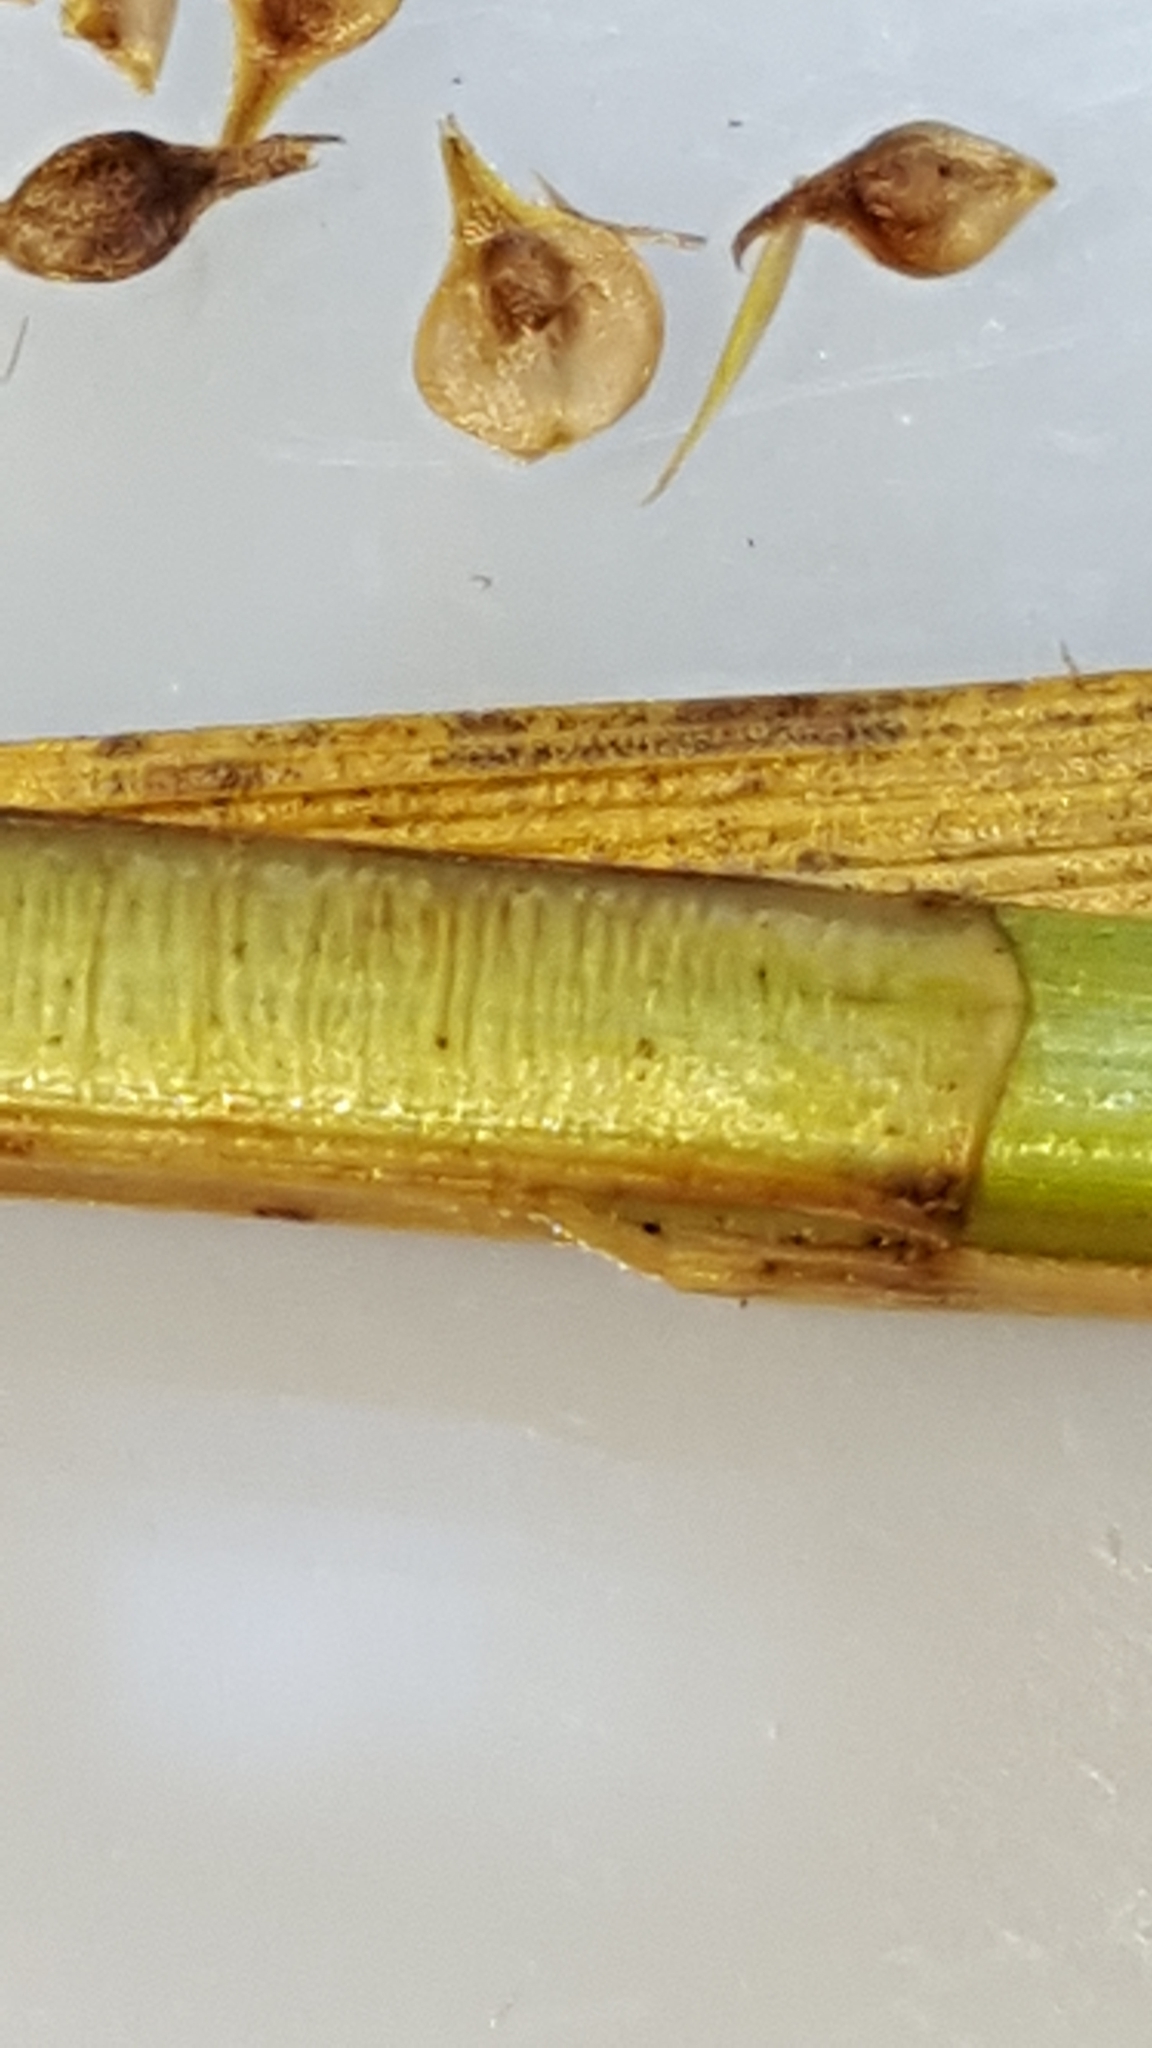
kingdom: Plantae
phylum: Tracheophyta
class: Liliopsida
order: Poales
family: Cyperaceae
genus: Carex
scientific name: Carex vulpinoidea
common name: American fox-sedge
